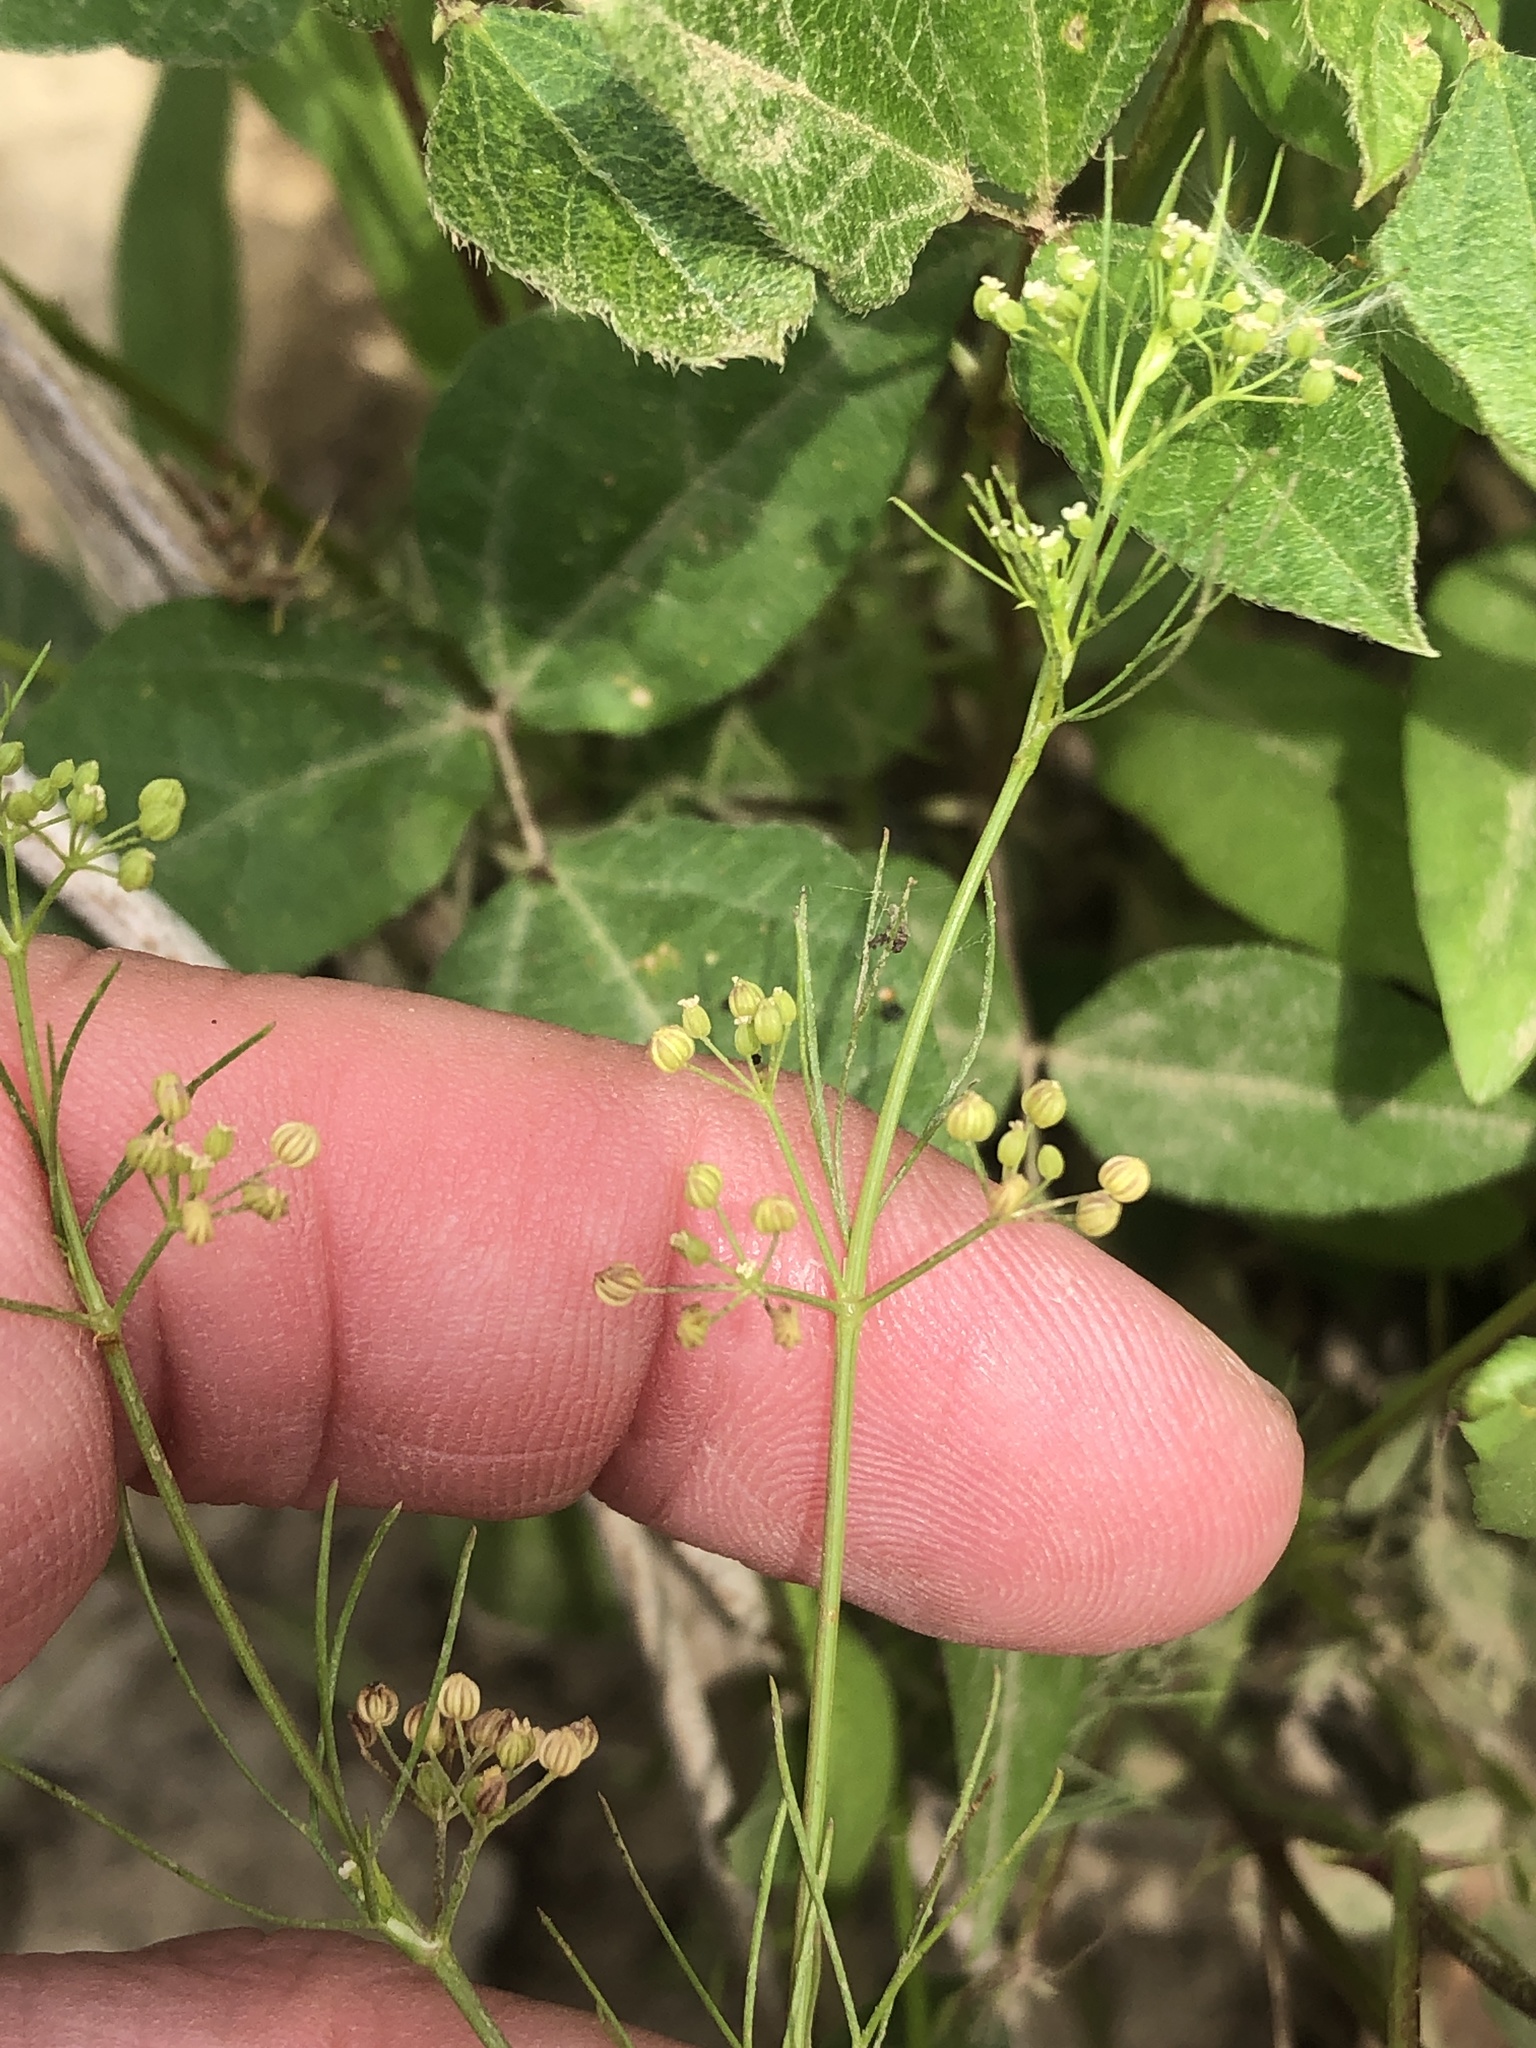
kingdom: Plantae
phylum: Tracheophyta
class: Magnoliopsida
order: Apiales
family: Apiaceae
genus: Cyclospermum
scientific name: Cyclospermum leptophyllum
